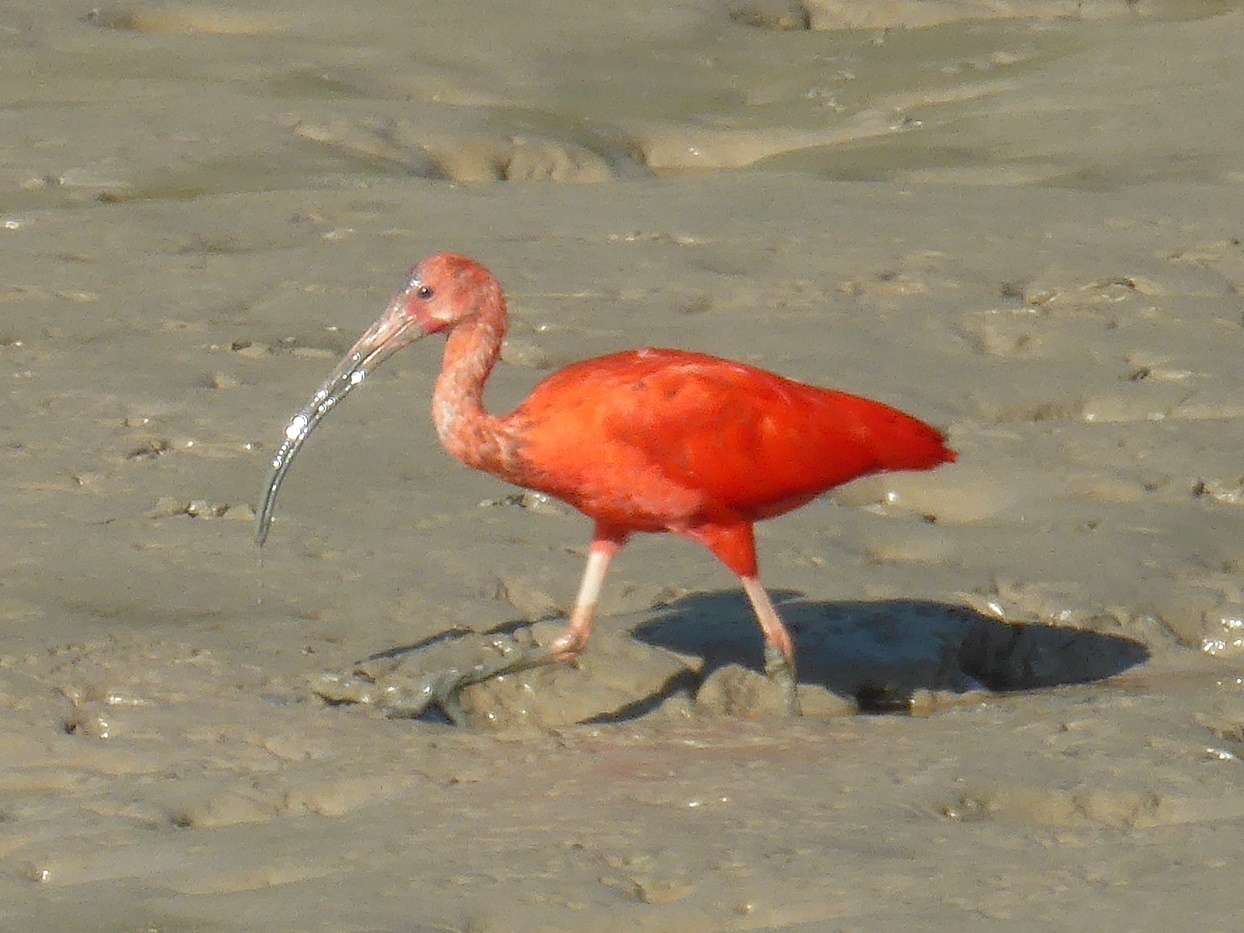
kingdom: Animalia
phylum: Chordata
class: Aves
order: Pelecaniformes
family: Threskiornithidae
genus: Eudocimus
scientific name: Eudocimus ruber
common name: Scarlet ibis
